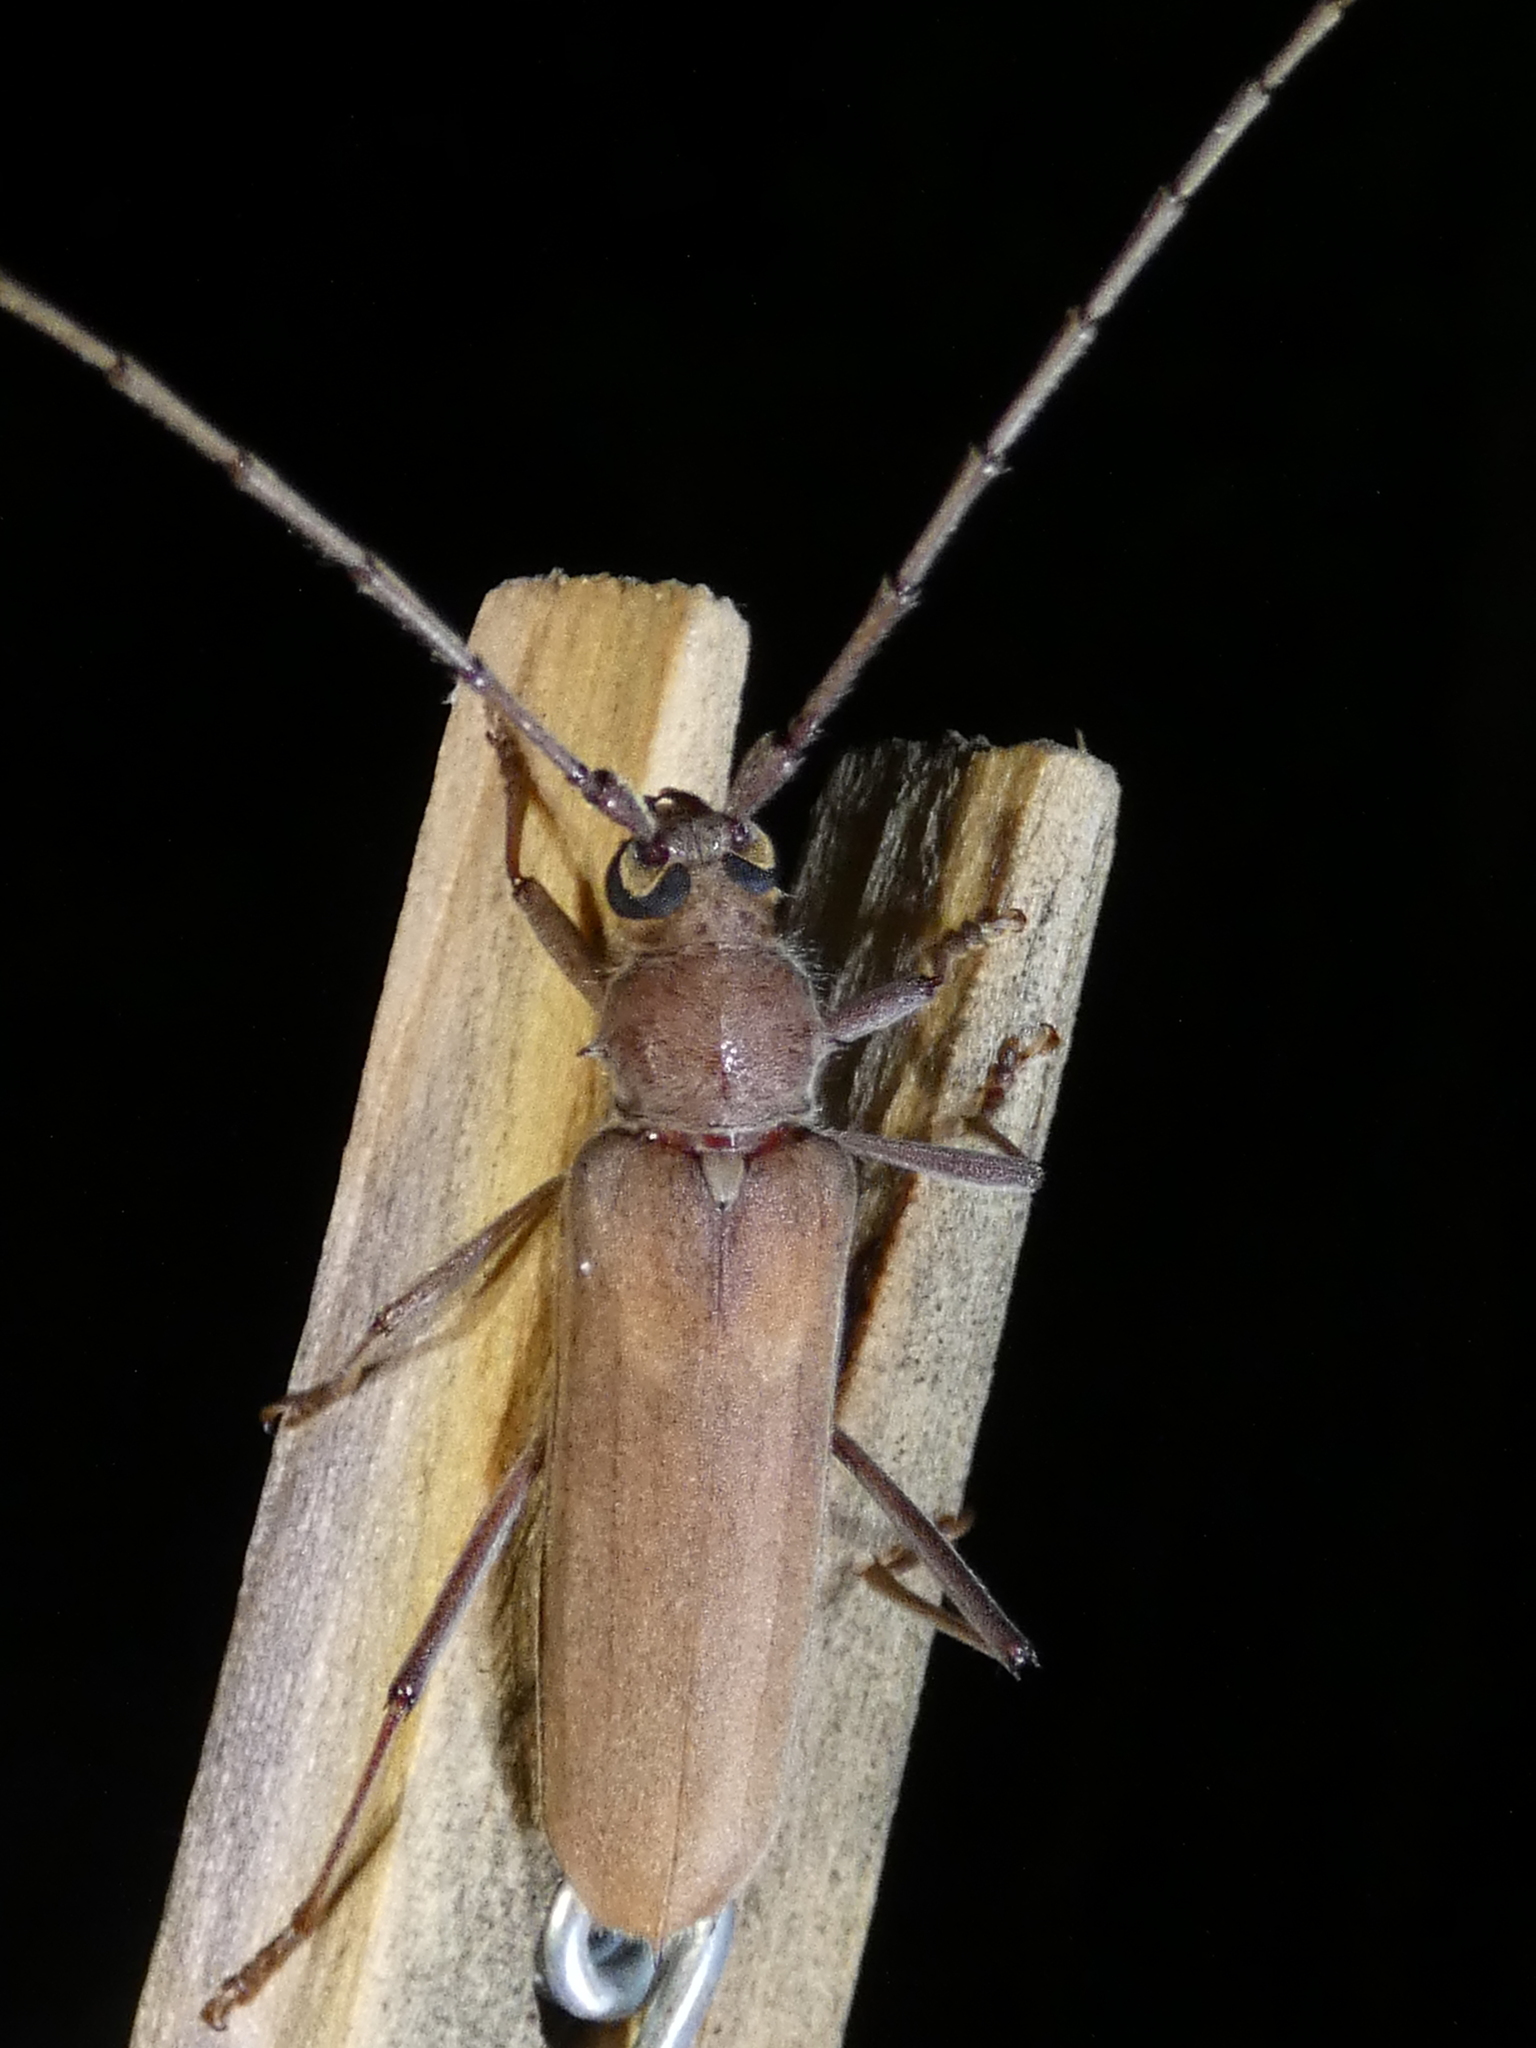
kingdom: Animalia
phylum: Arthropoda
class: Insecta
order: Coleoptera
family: Cerambycidae
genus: Knulliana
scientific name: Knulliana cincta
